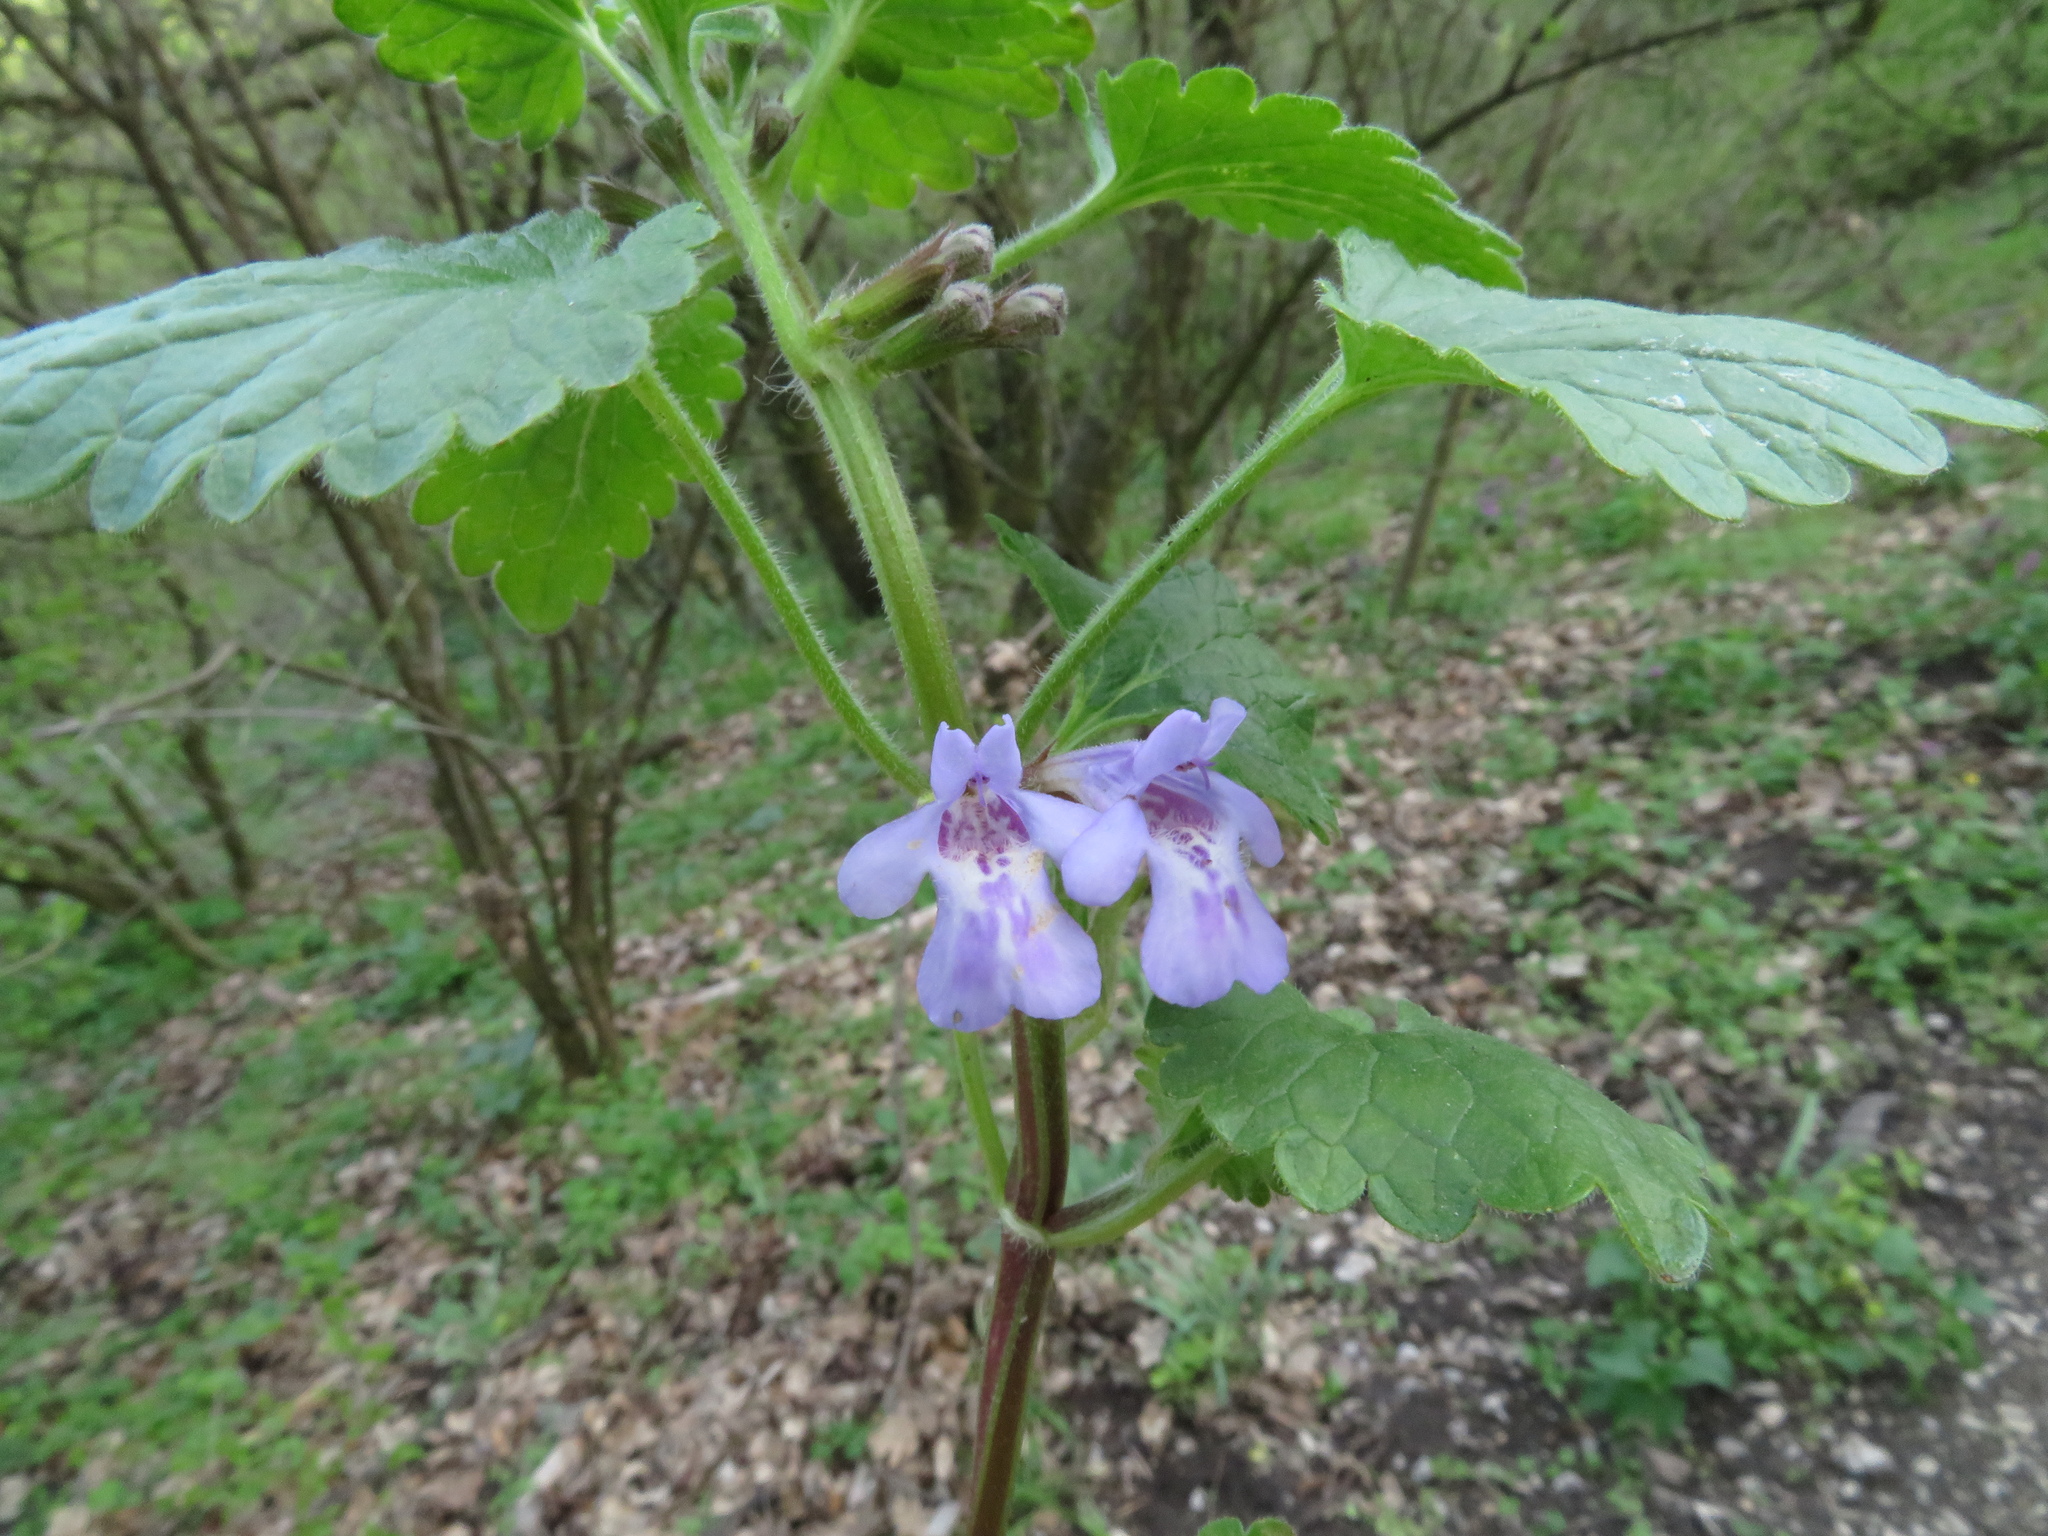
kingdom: Plantae
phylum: Tracheophyta
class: Magnoliopsida
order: Lamiales
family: Lamiaceae
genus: Glechoma
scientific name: Glechoma hirsuta
